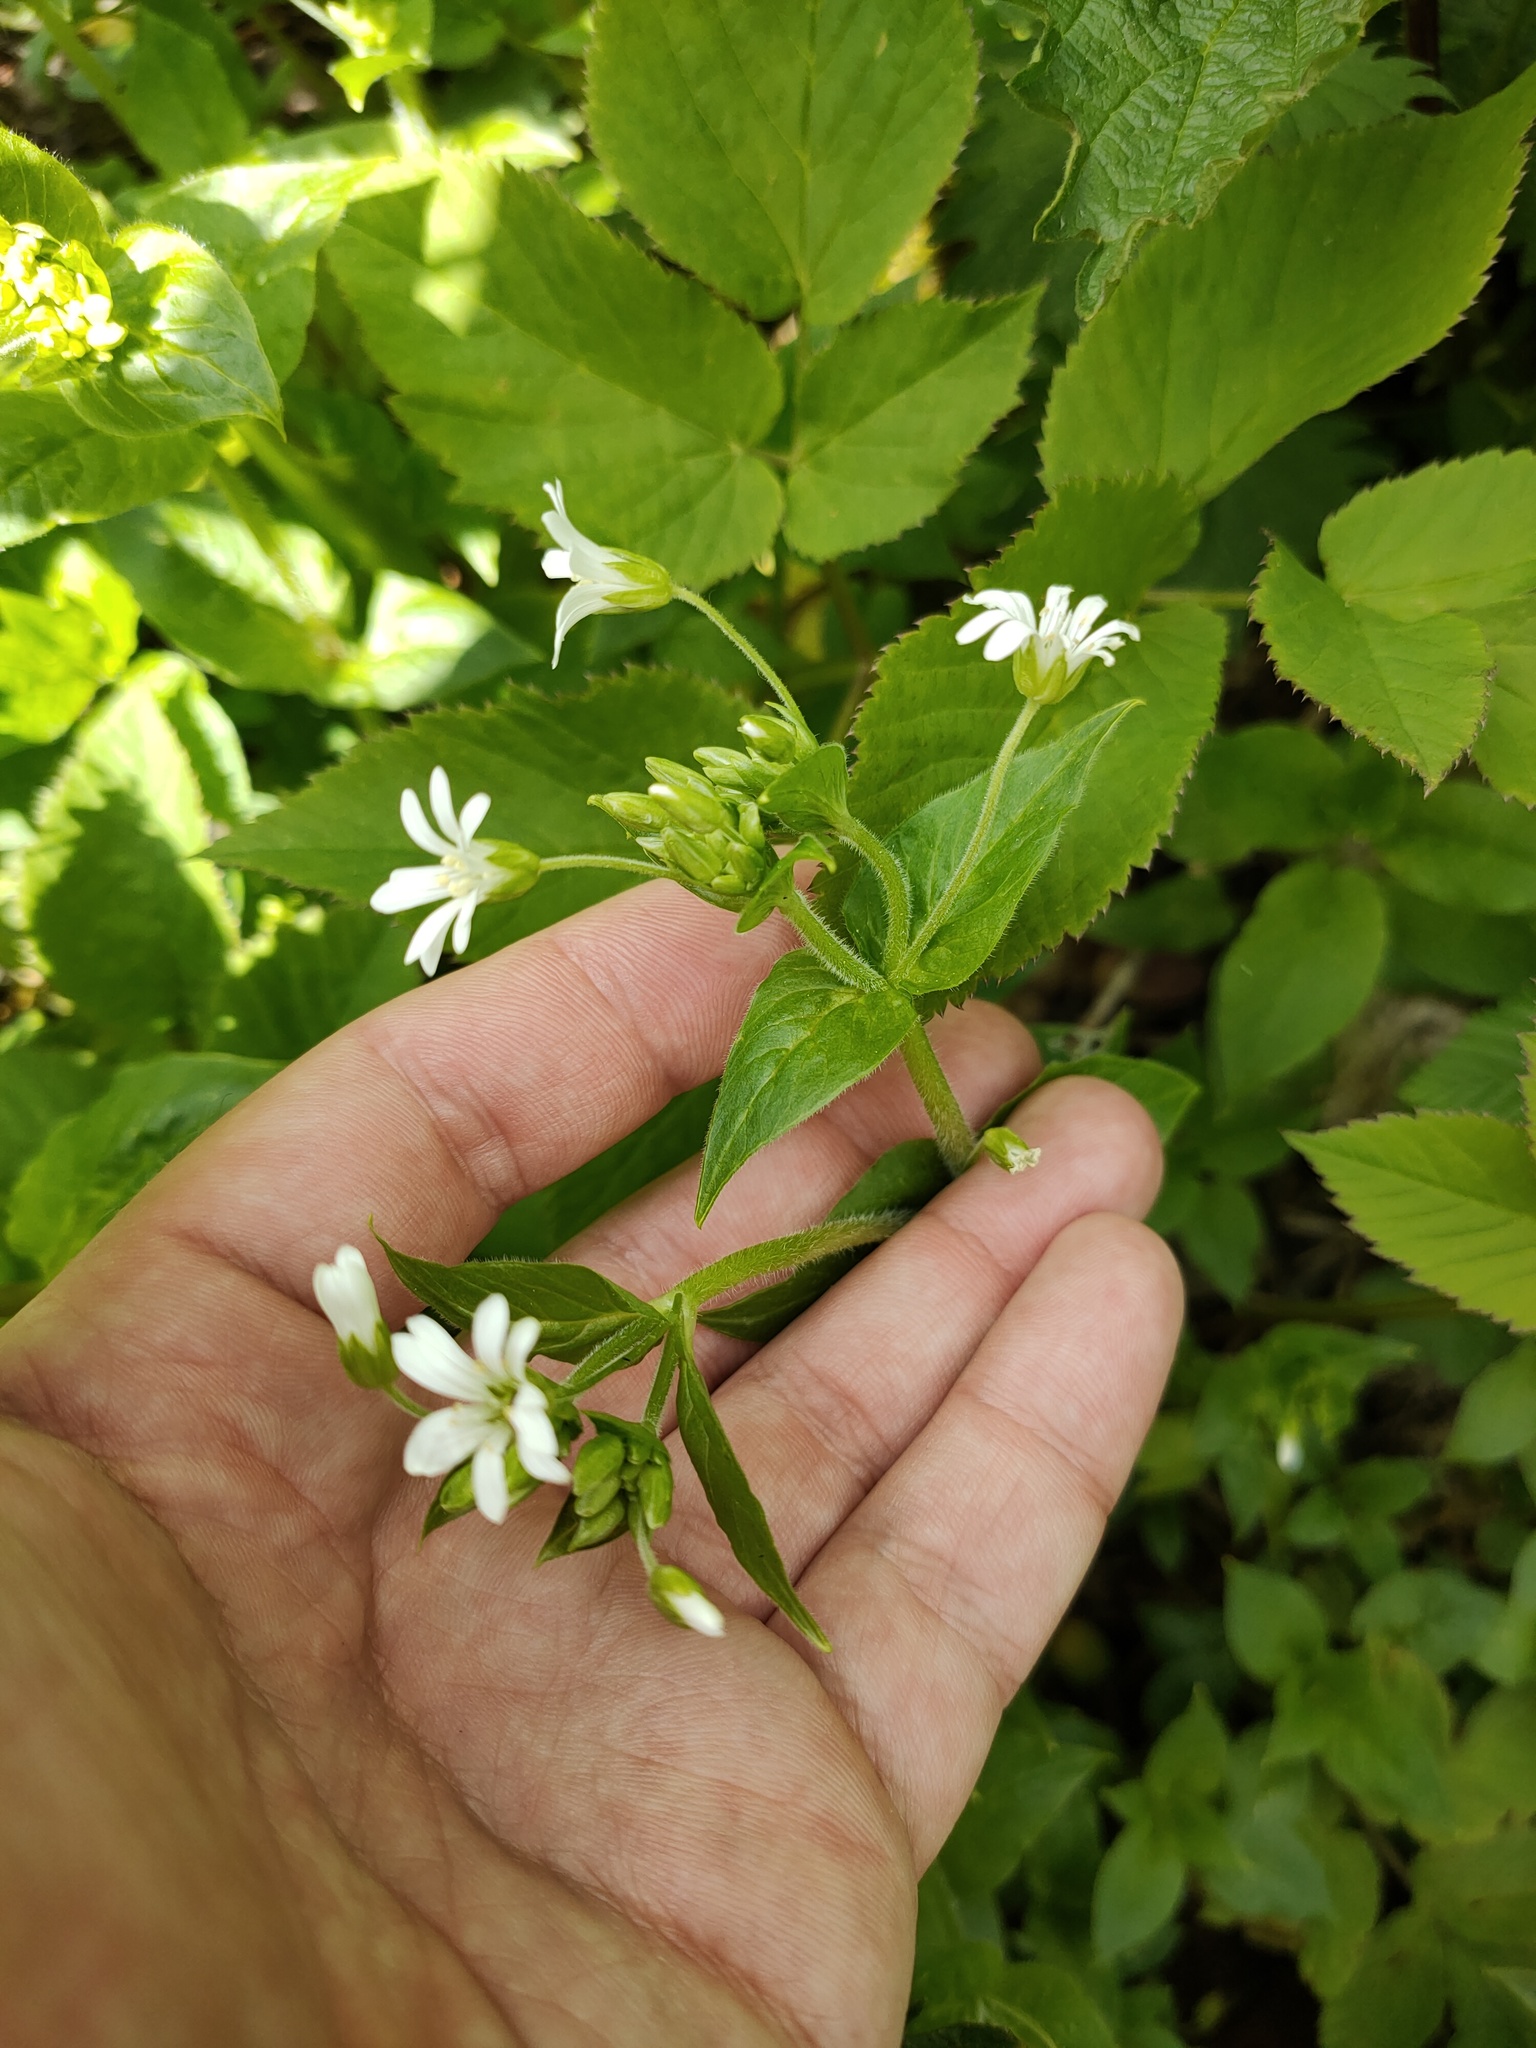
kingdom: Plantae
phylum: Tracheophyta
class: Magnoliopsida
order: Caryophyllales
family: Caryophyllaceae
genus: Stellaria
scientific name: Stellaria nemorum
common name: Wood stitchwort
